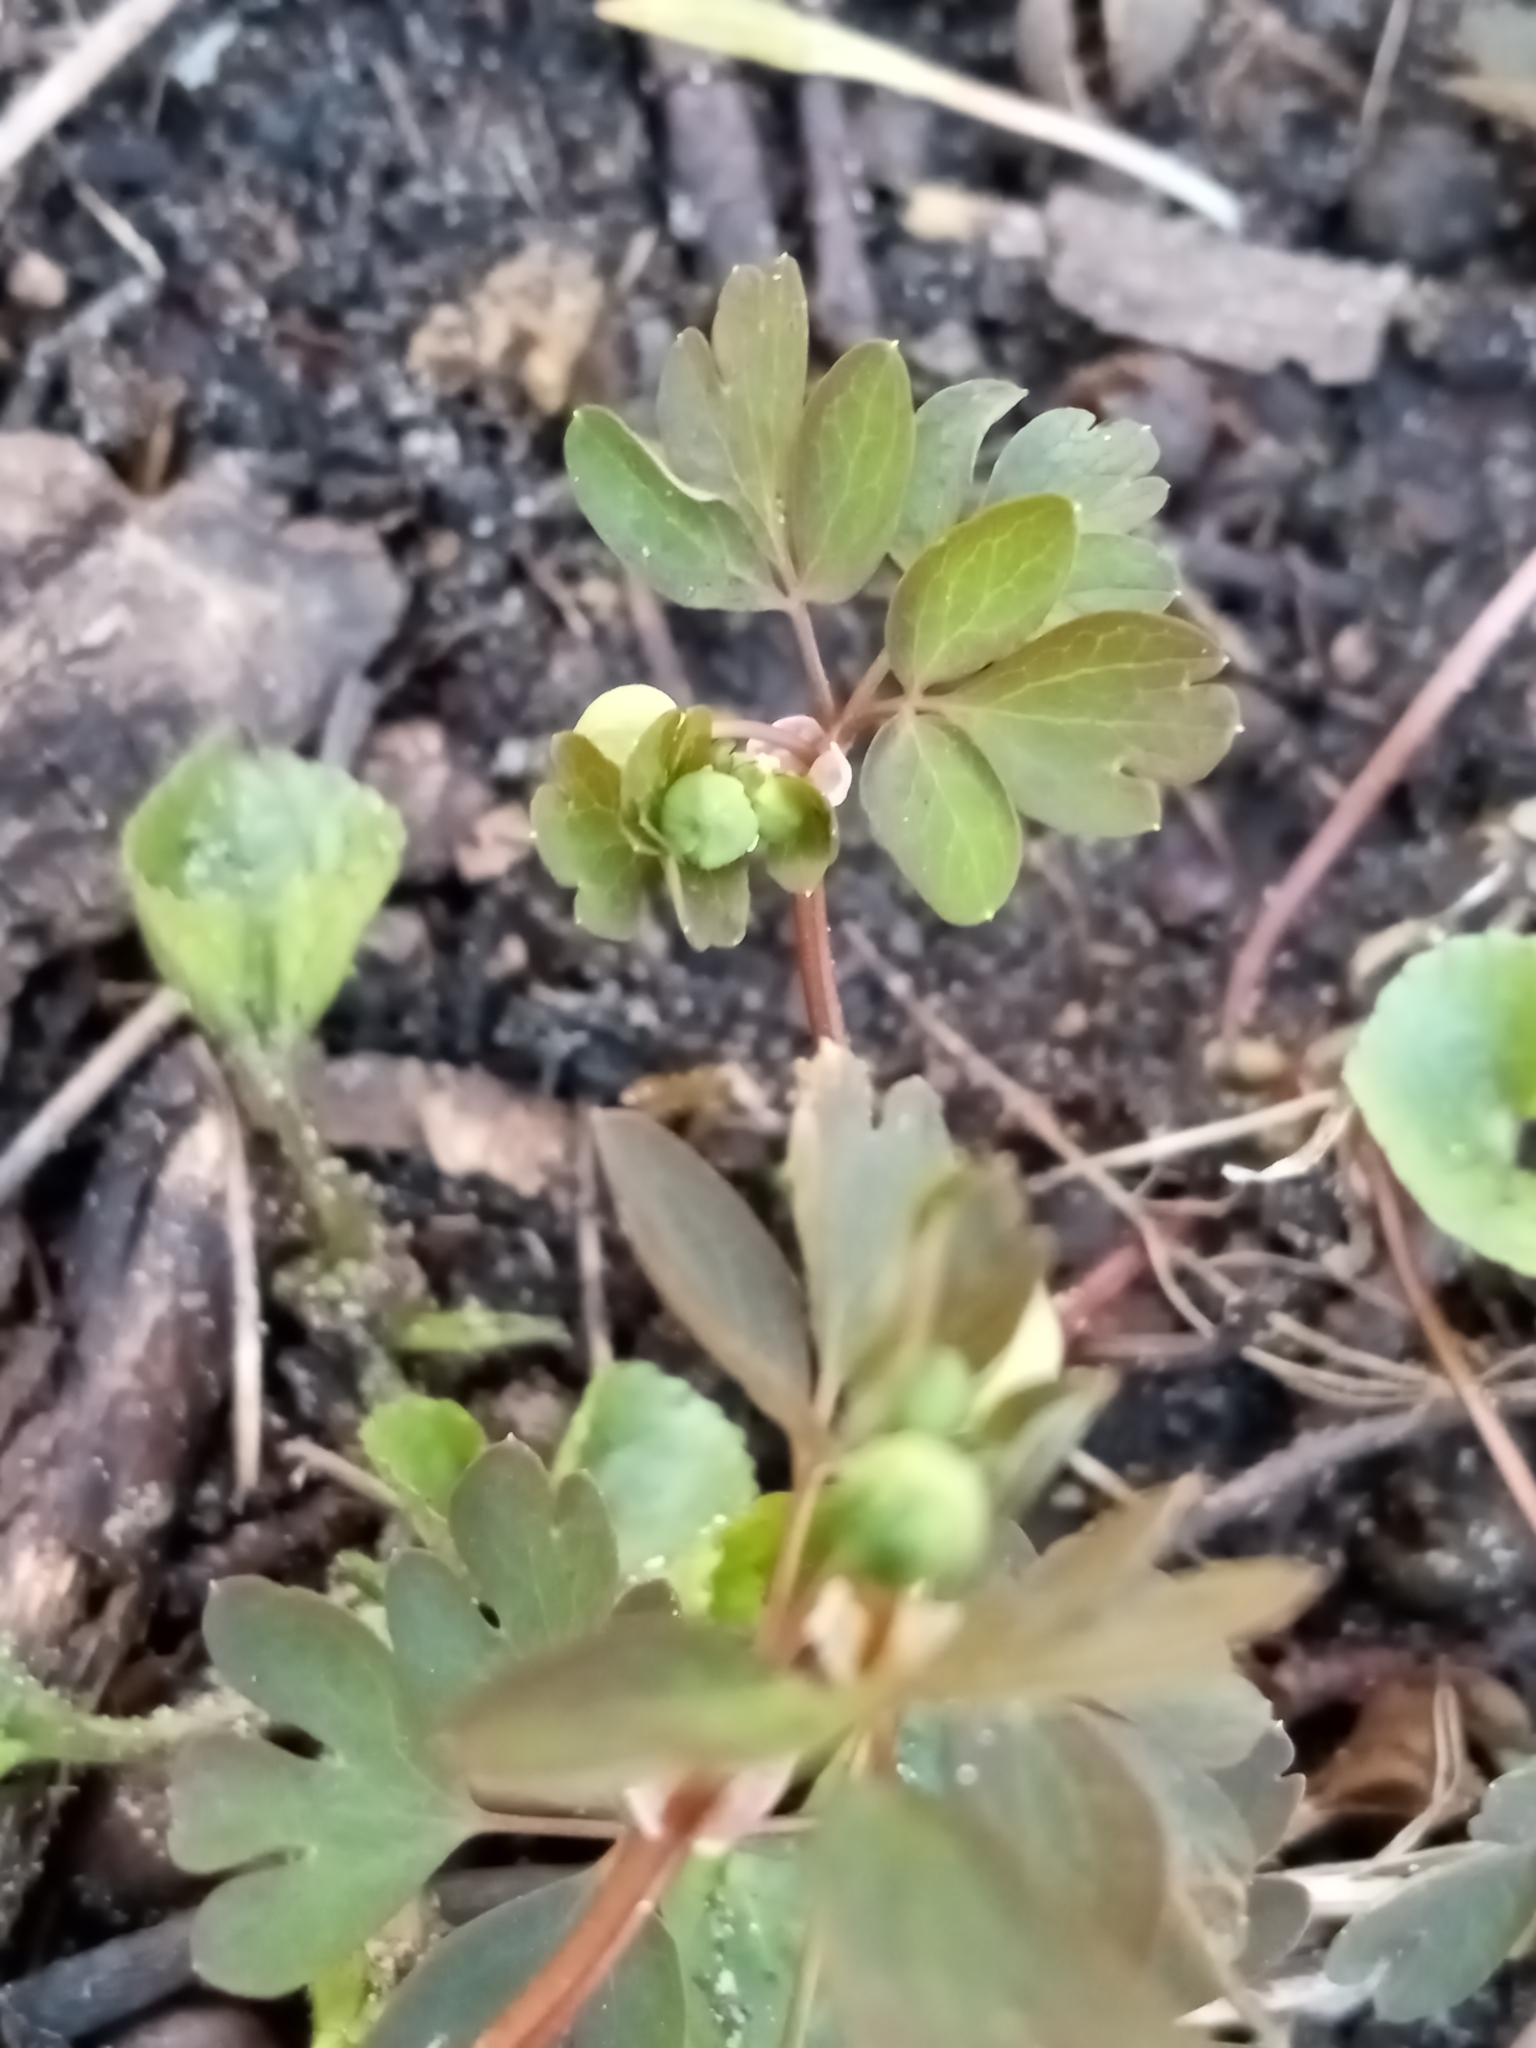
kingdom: Plantae
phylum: Tracheophyta
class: Magnoliopsida
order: Ranunculales
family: Ranunculaceae
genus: Enemion
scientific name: Enemion biternatum
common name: Eastern false rue-anemone
